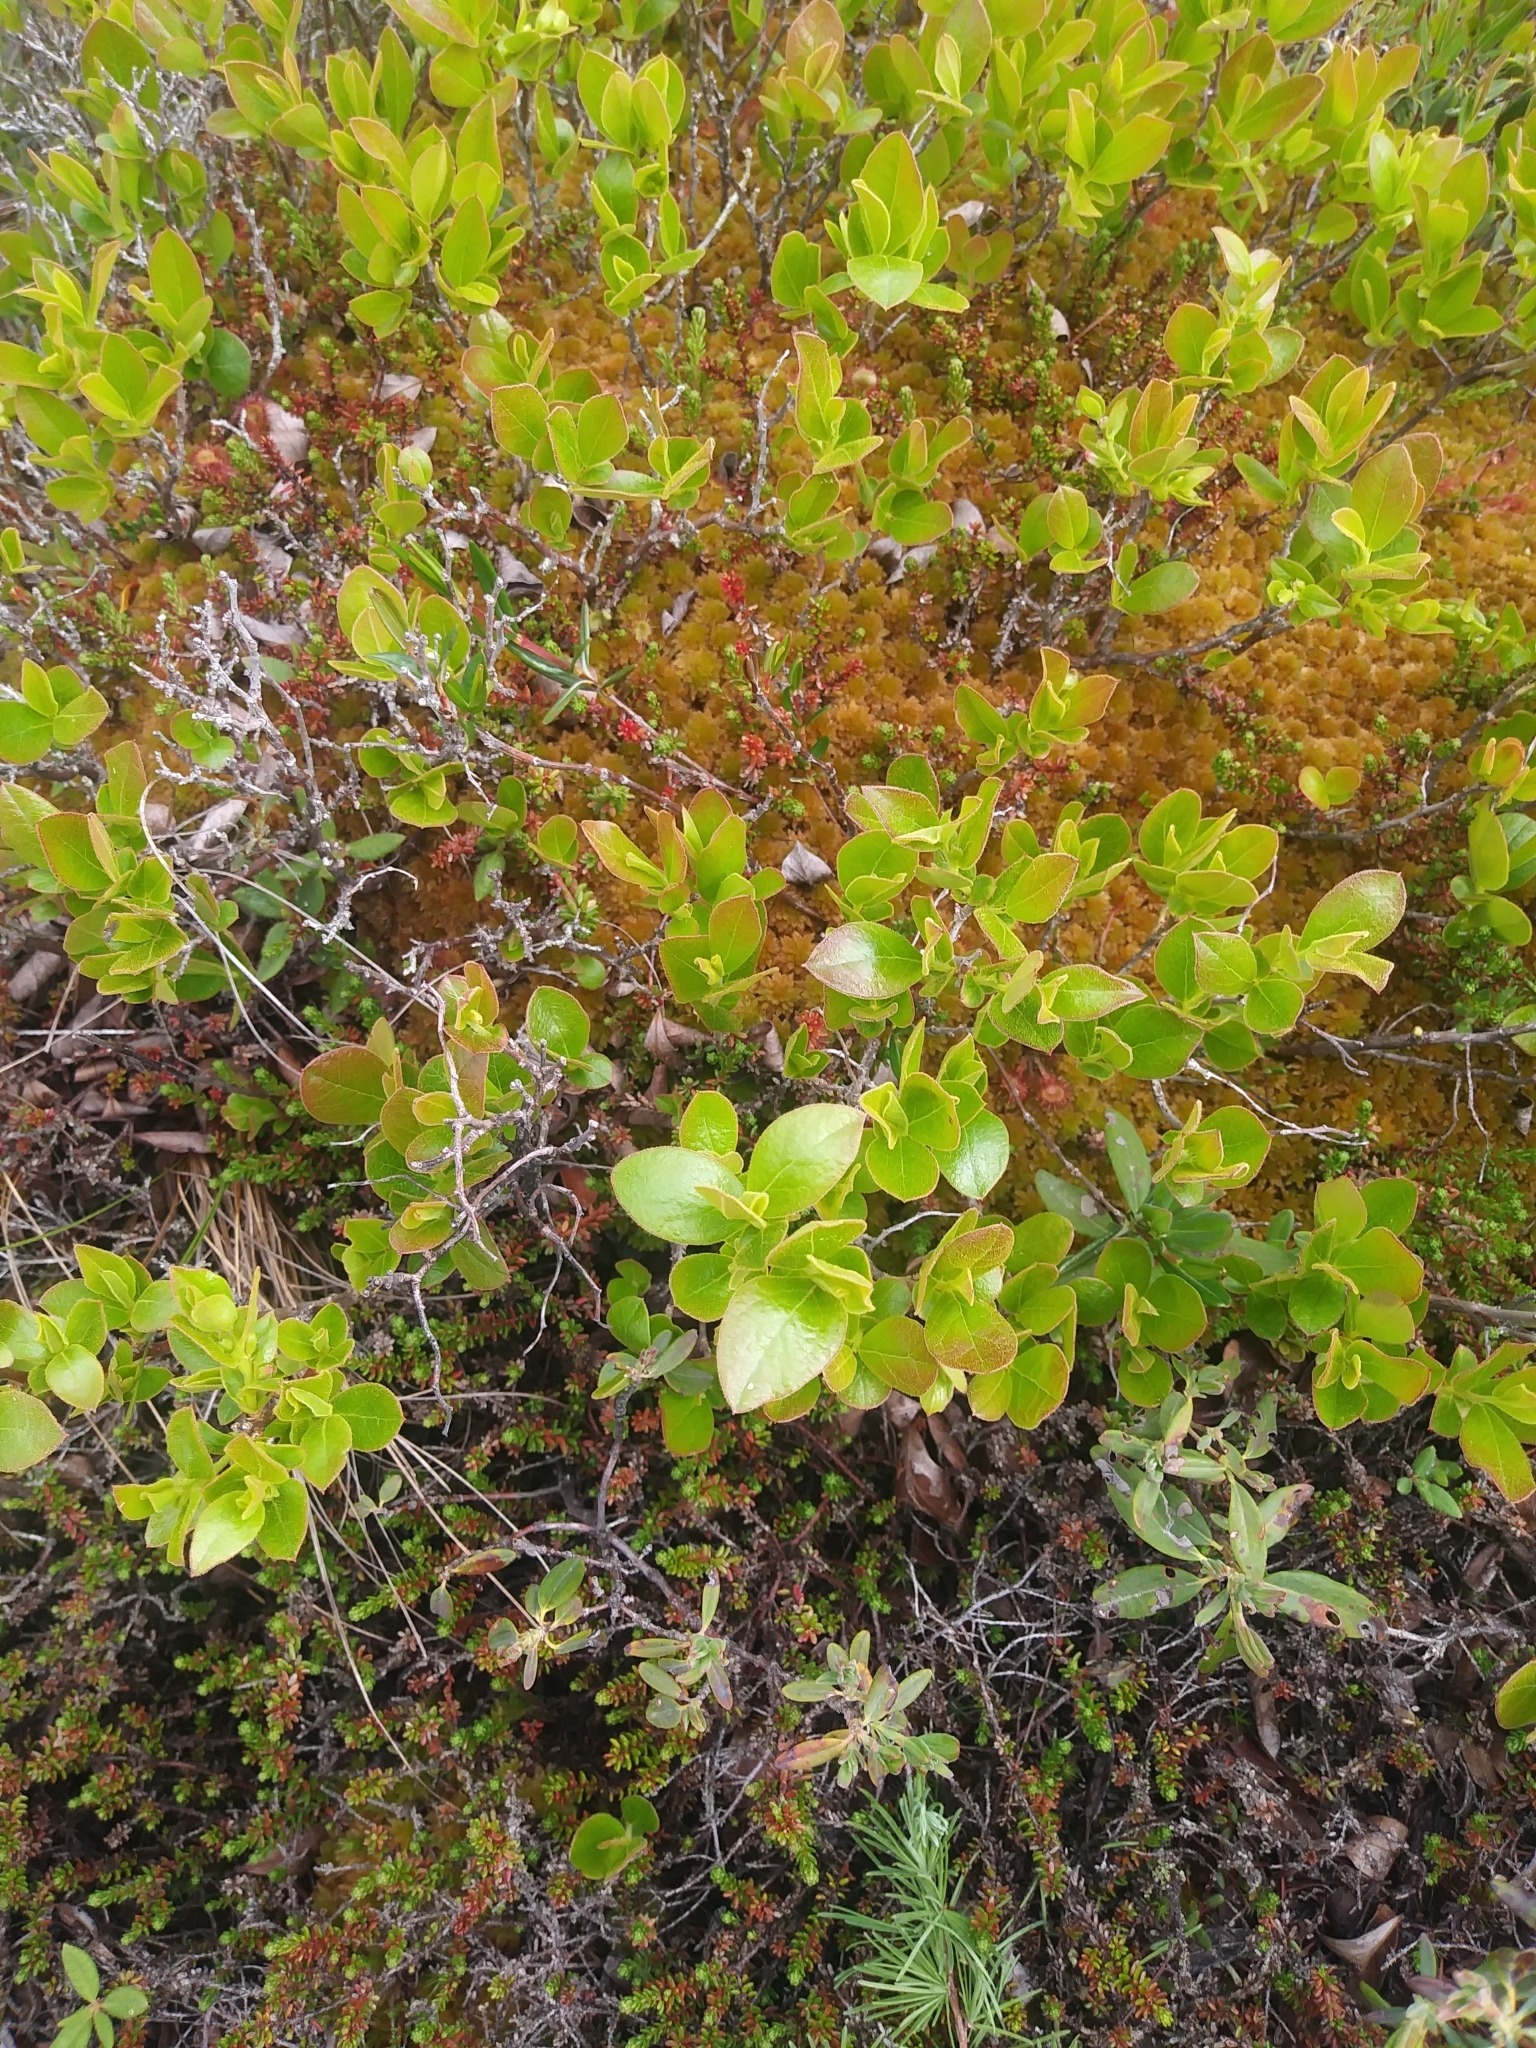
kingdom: Plantae
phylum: Tracheophyta
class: Magnoliopsida
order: Ericales
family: Ericaceae
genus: Gaylussacia
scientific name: Gaylussacia bigeloviana
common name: Bog huckleberry
